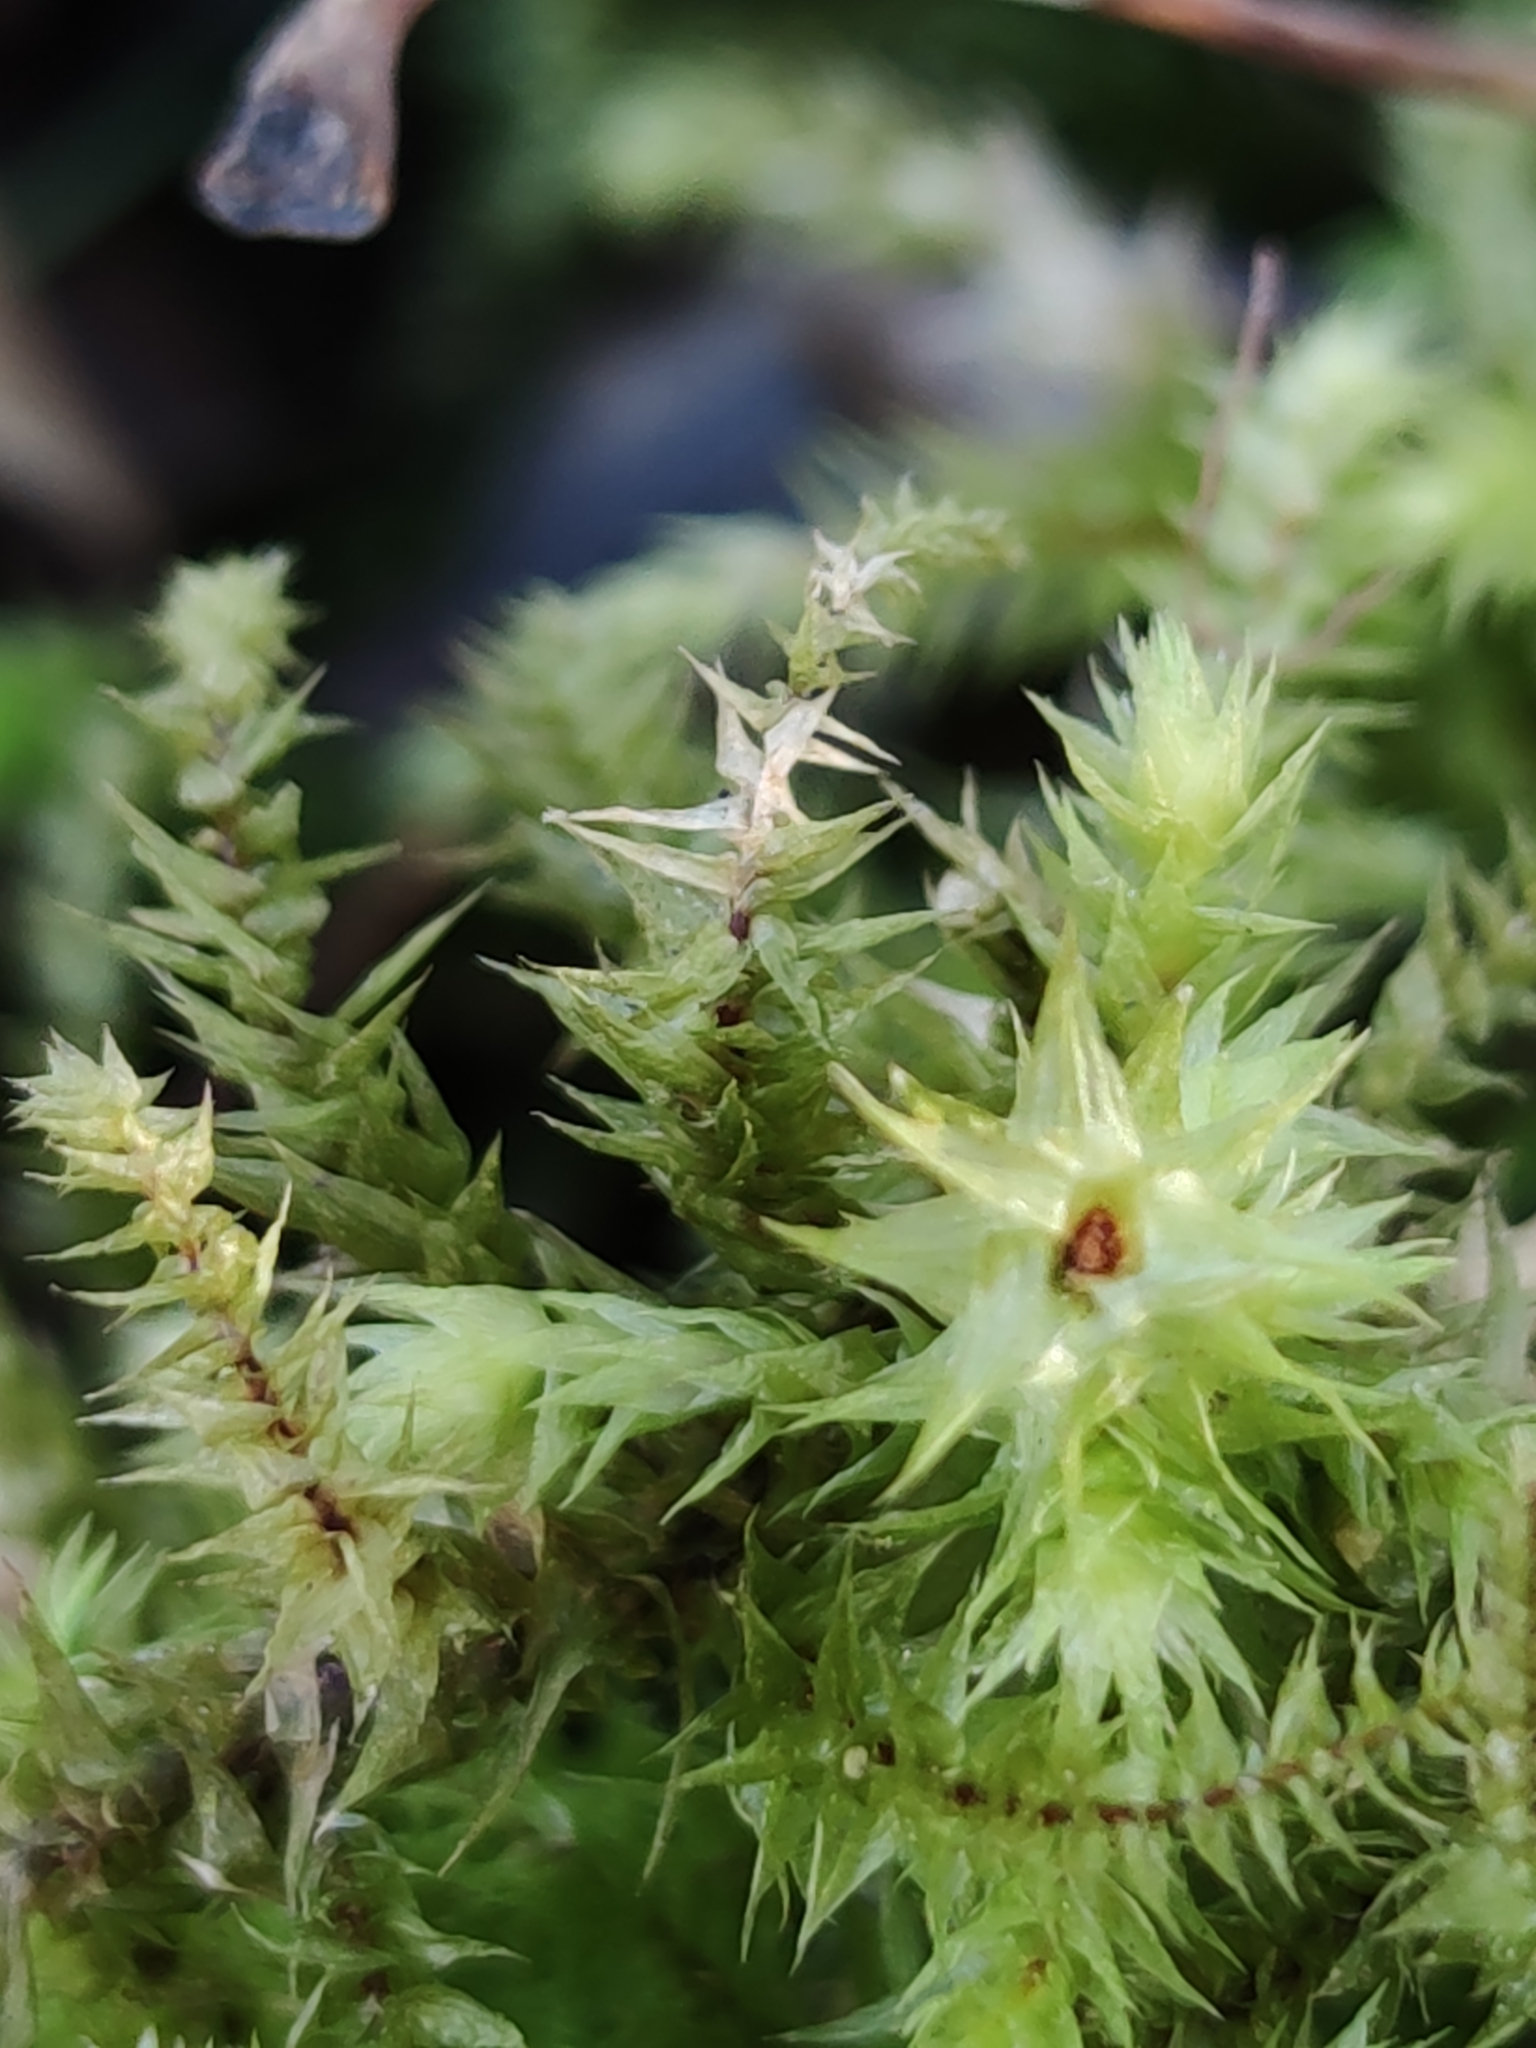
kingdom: Plantae
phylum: Bryophyta
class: Bryopsida
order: Hypnales
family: Hylocomiaceae
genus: Hylocomiadelphus
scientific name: Hylocomiadelphus triquetrus
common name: Rough goose neck moss
